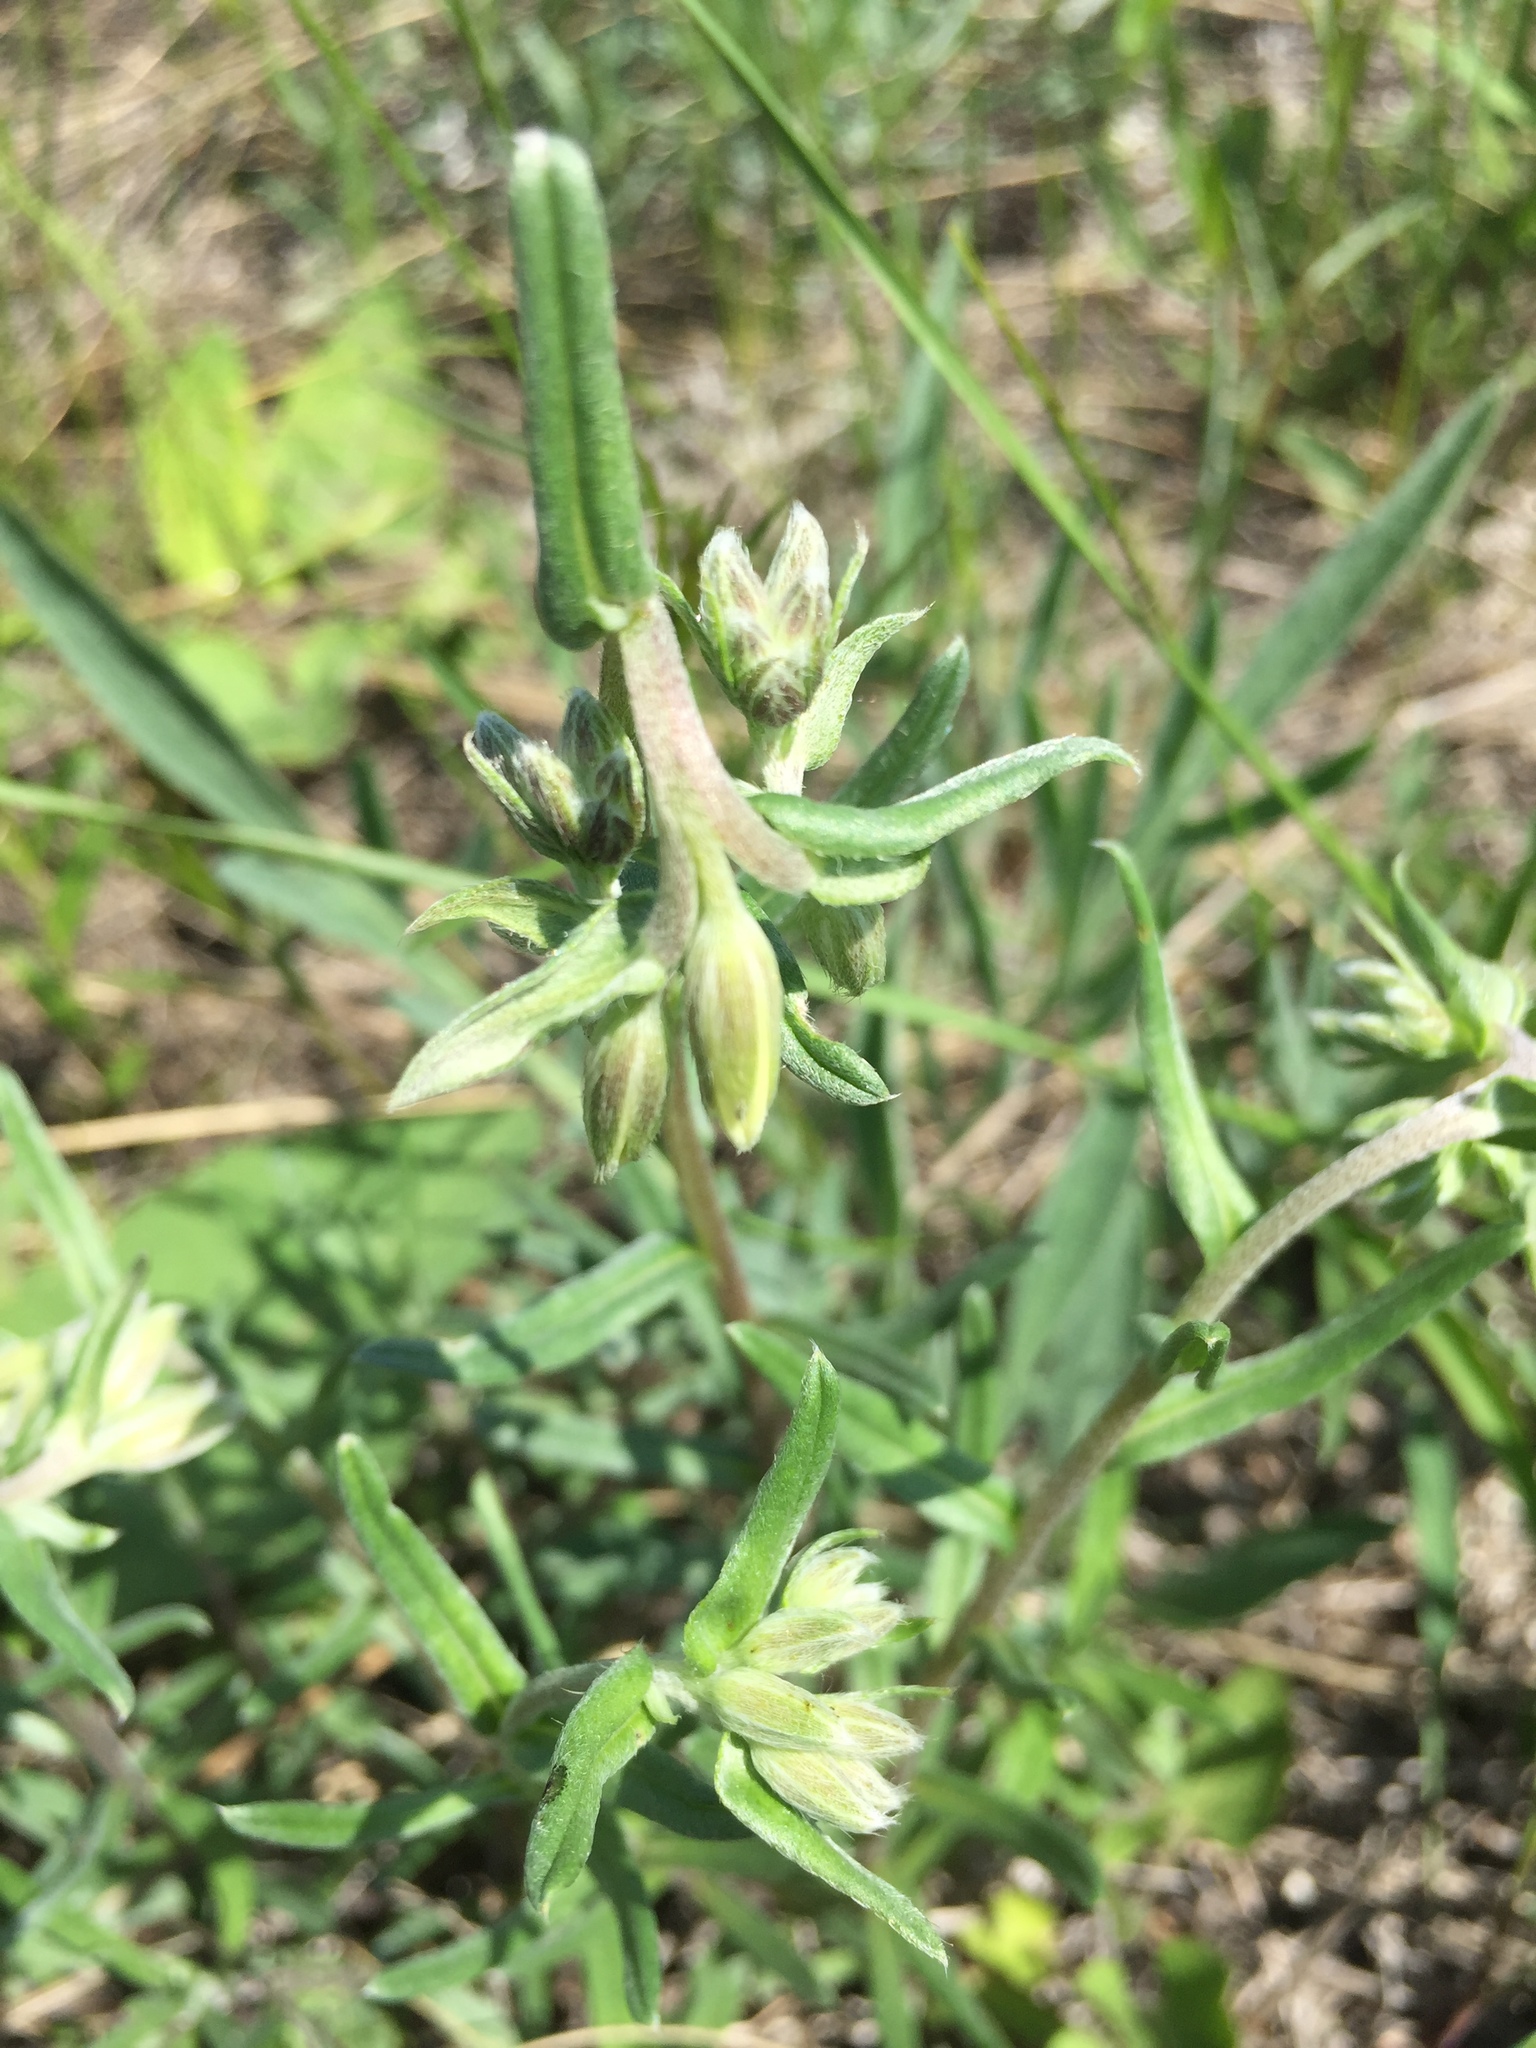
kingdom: Plantae
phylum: Tracheophyta
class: Magnoliopsida
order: Boraginales
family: Boraginaceae
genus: Buglossoides
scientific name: Buglossoides arvensis
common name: Corn gromwell
